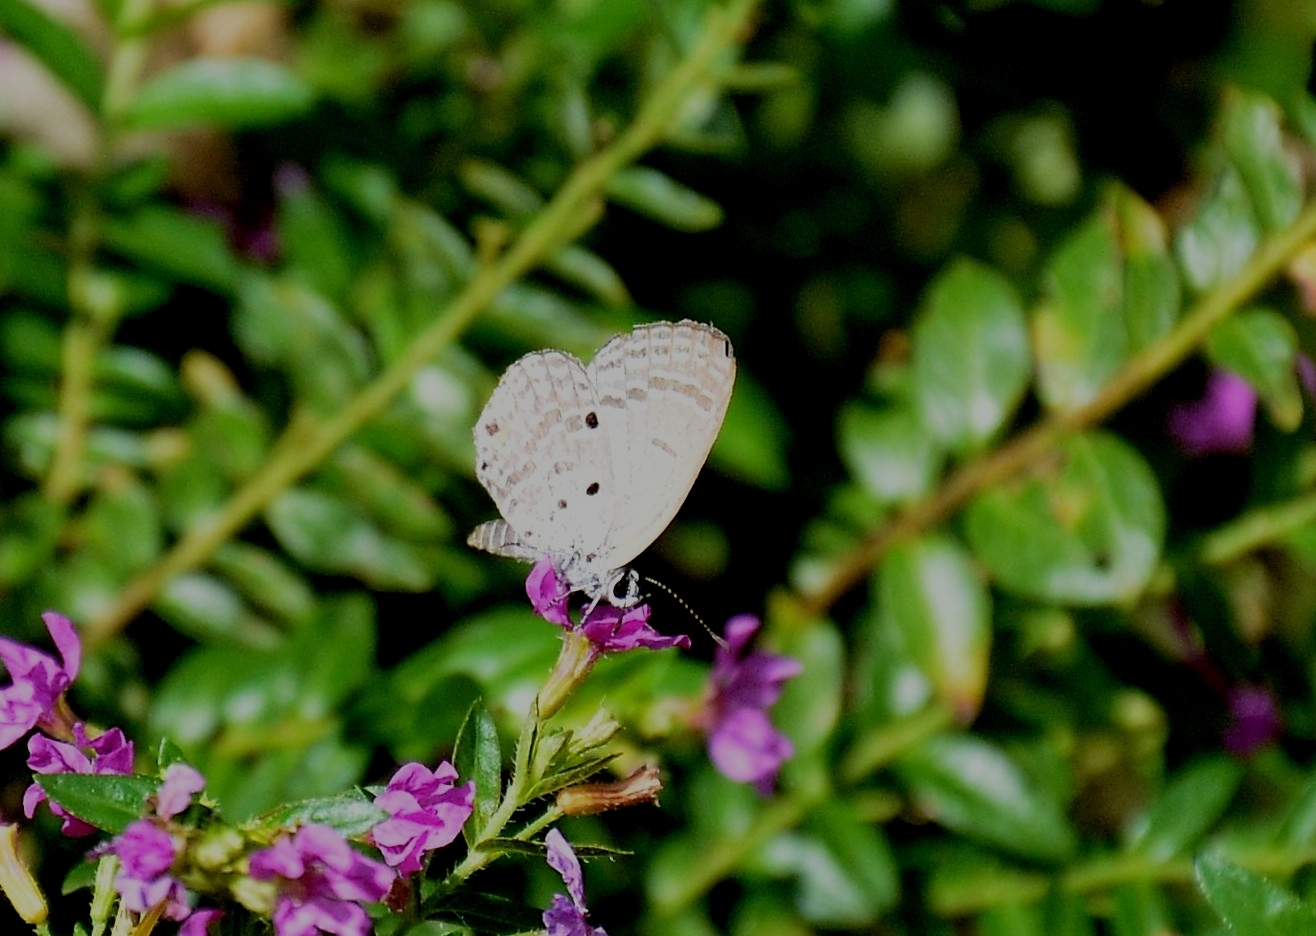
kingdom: Animalia
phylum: Arthropoda
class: Insecta
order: Lepidoptera
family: Lycaenidae
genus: Luthrodes
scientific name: Luthrodes pandava
